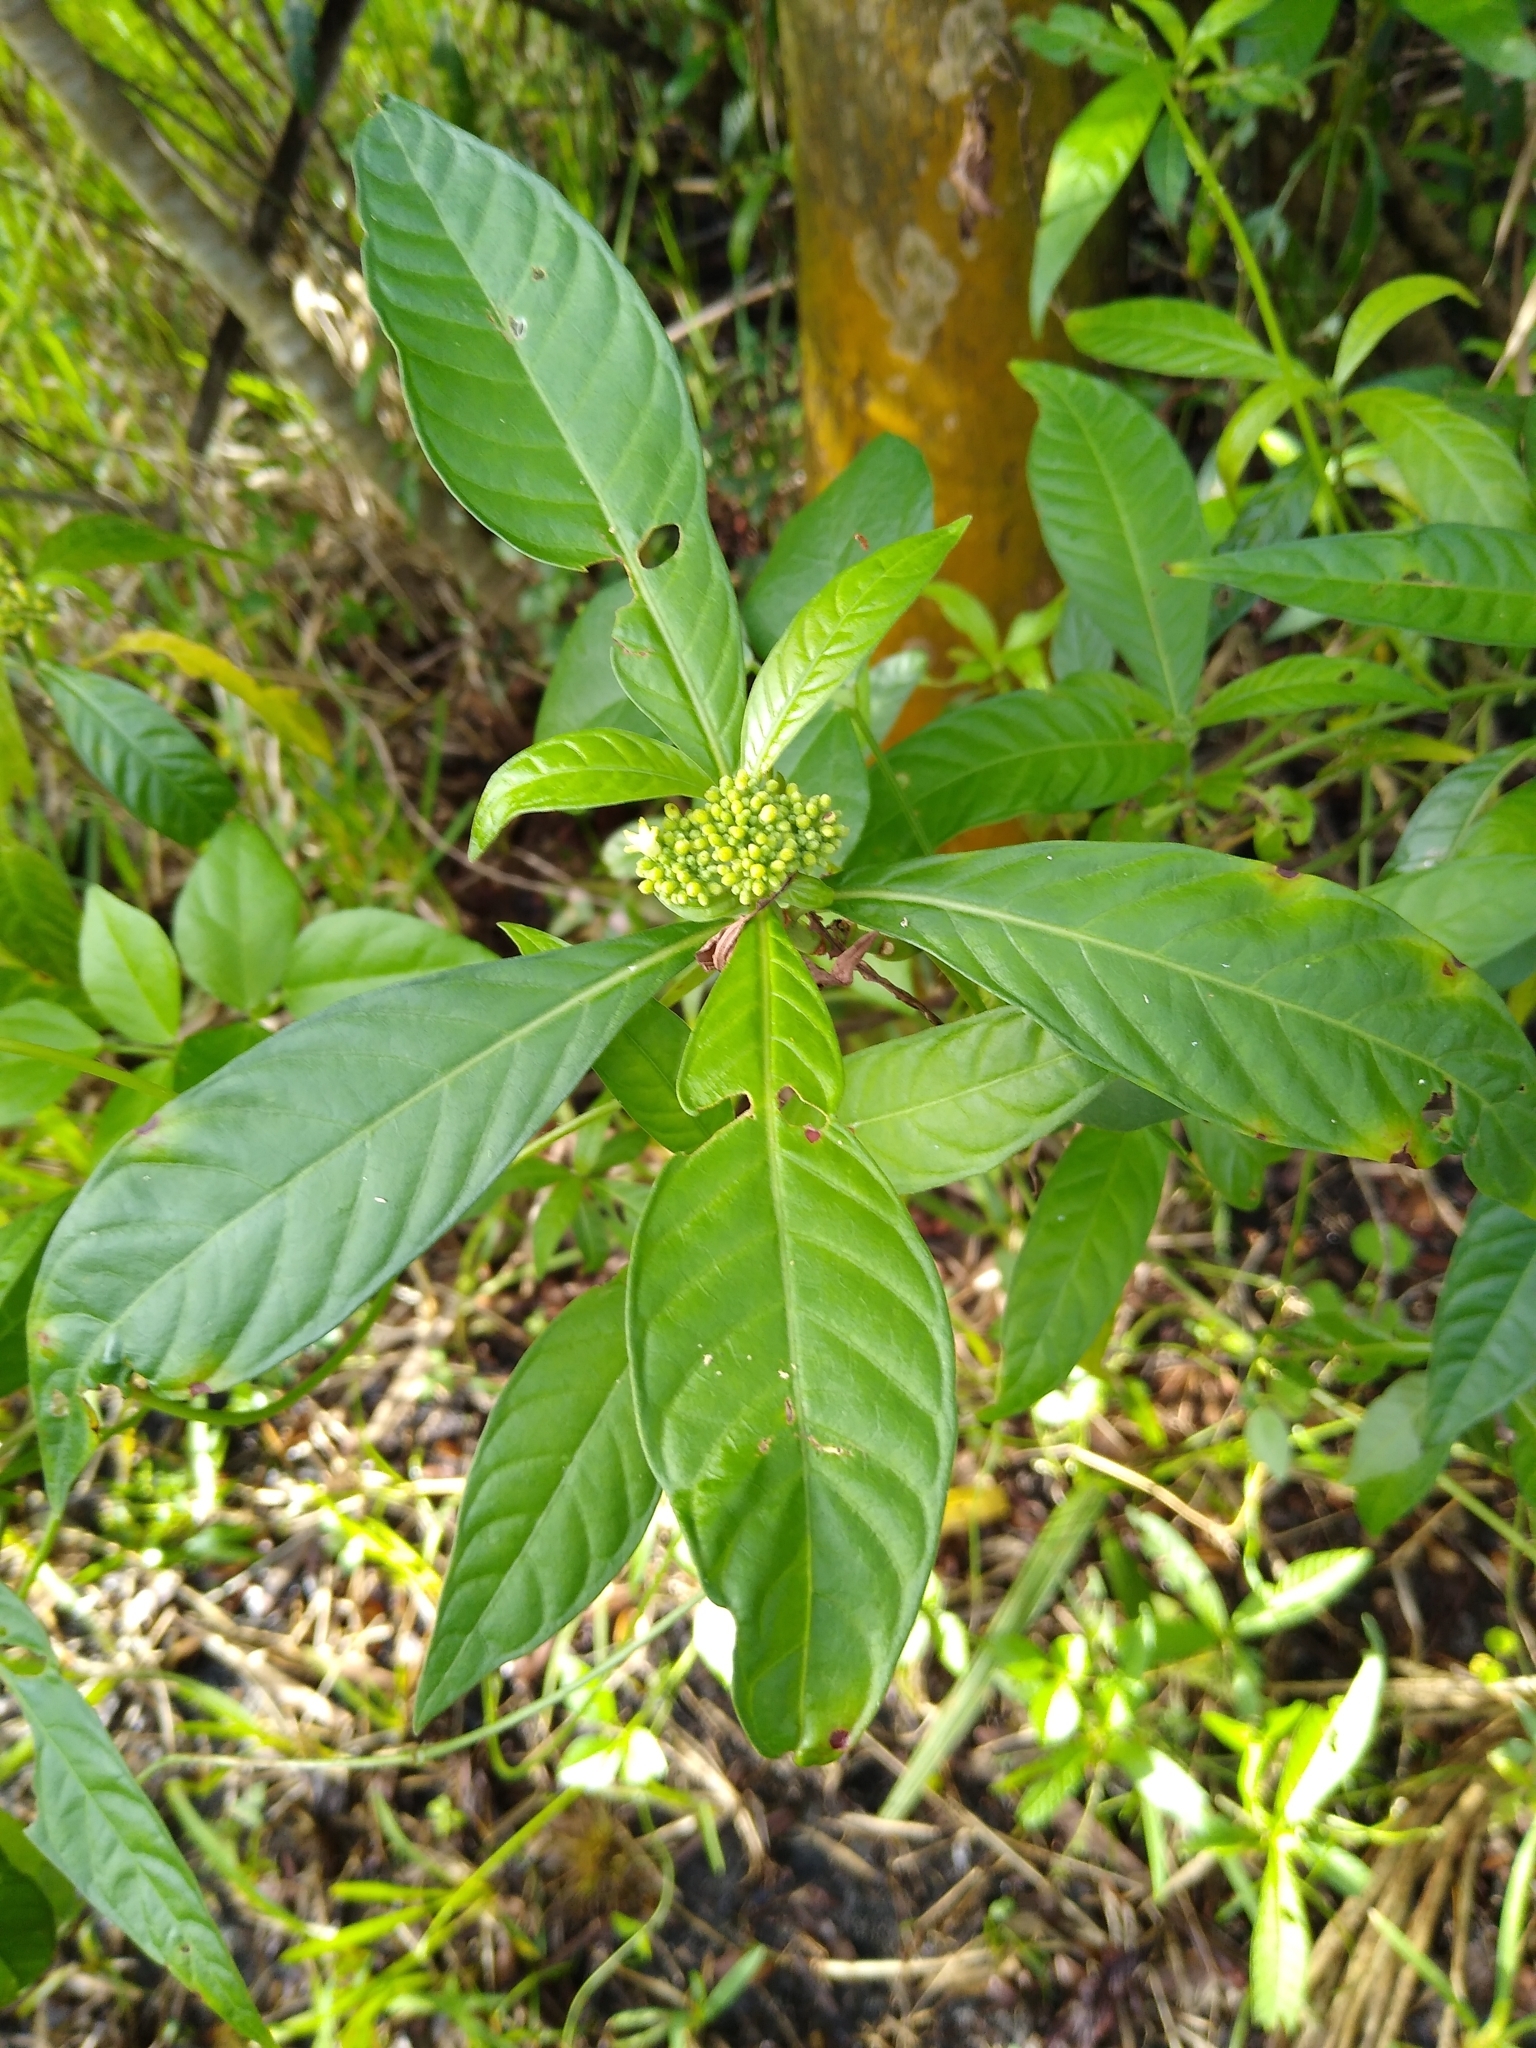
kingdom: Plantae
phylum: Tracheophyta
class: Magnoliopsida
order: Gentianales
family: Rubiaceae
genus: Psychotria
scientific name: Psychotria tenuifolia
